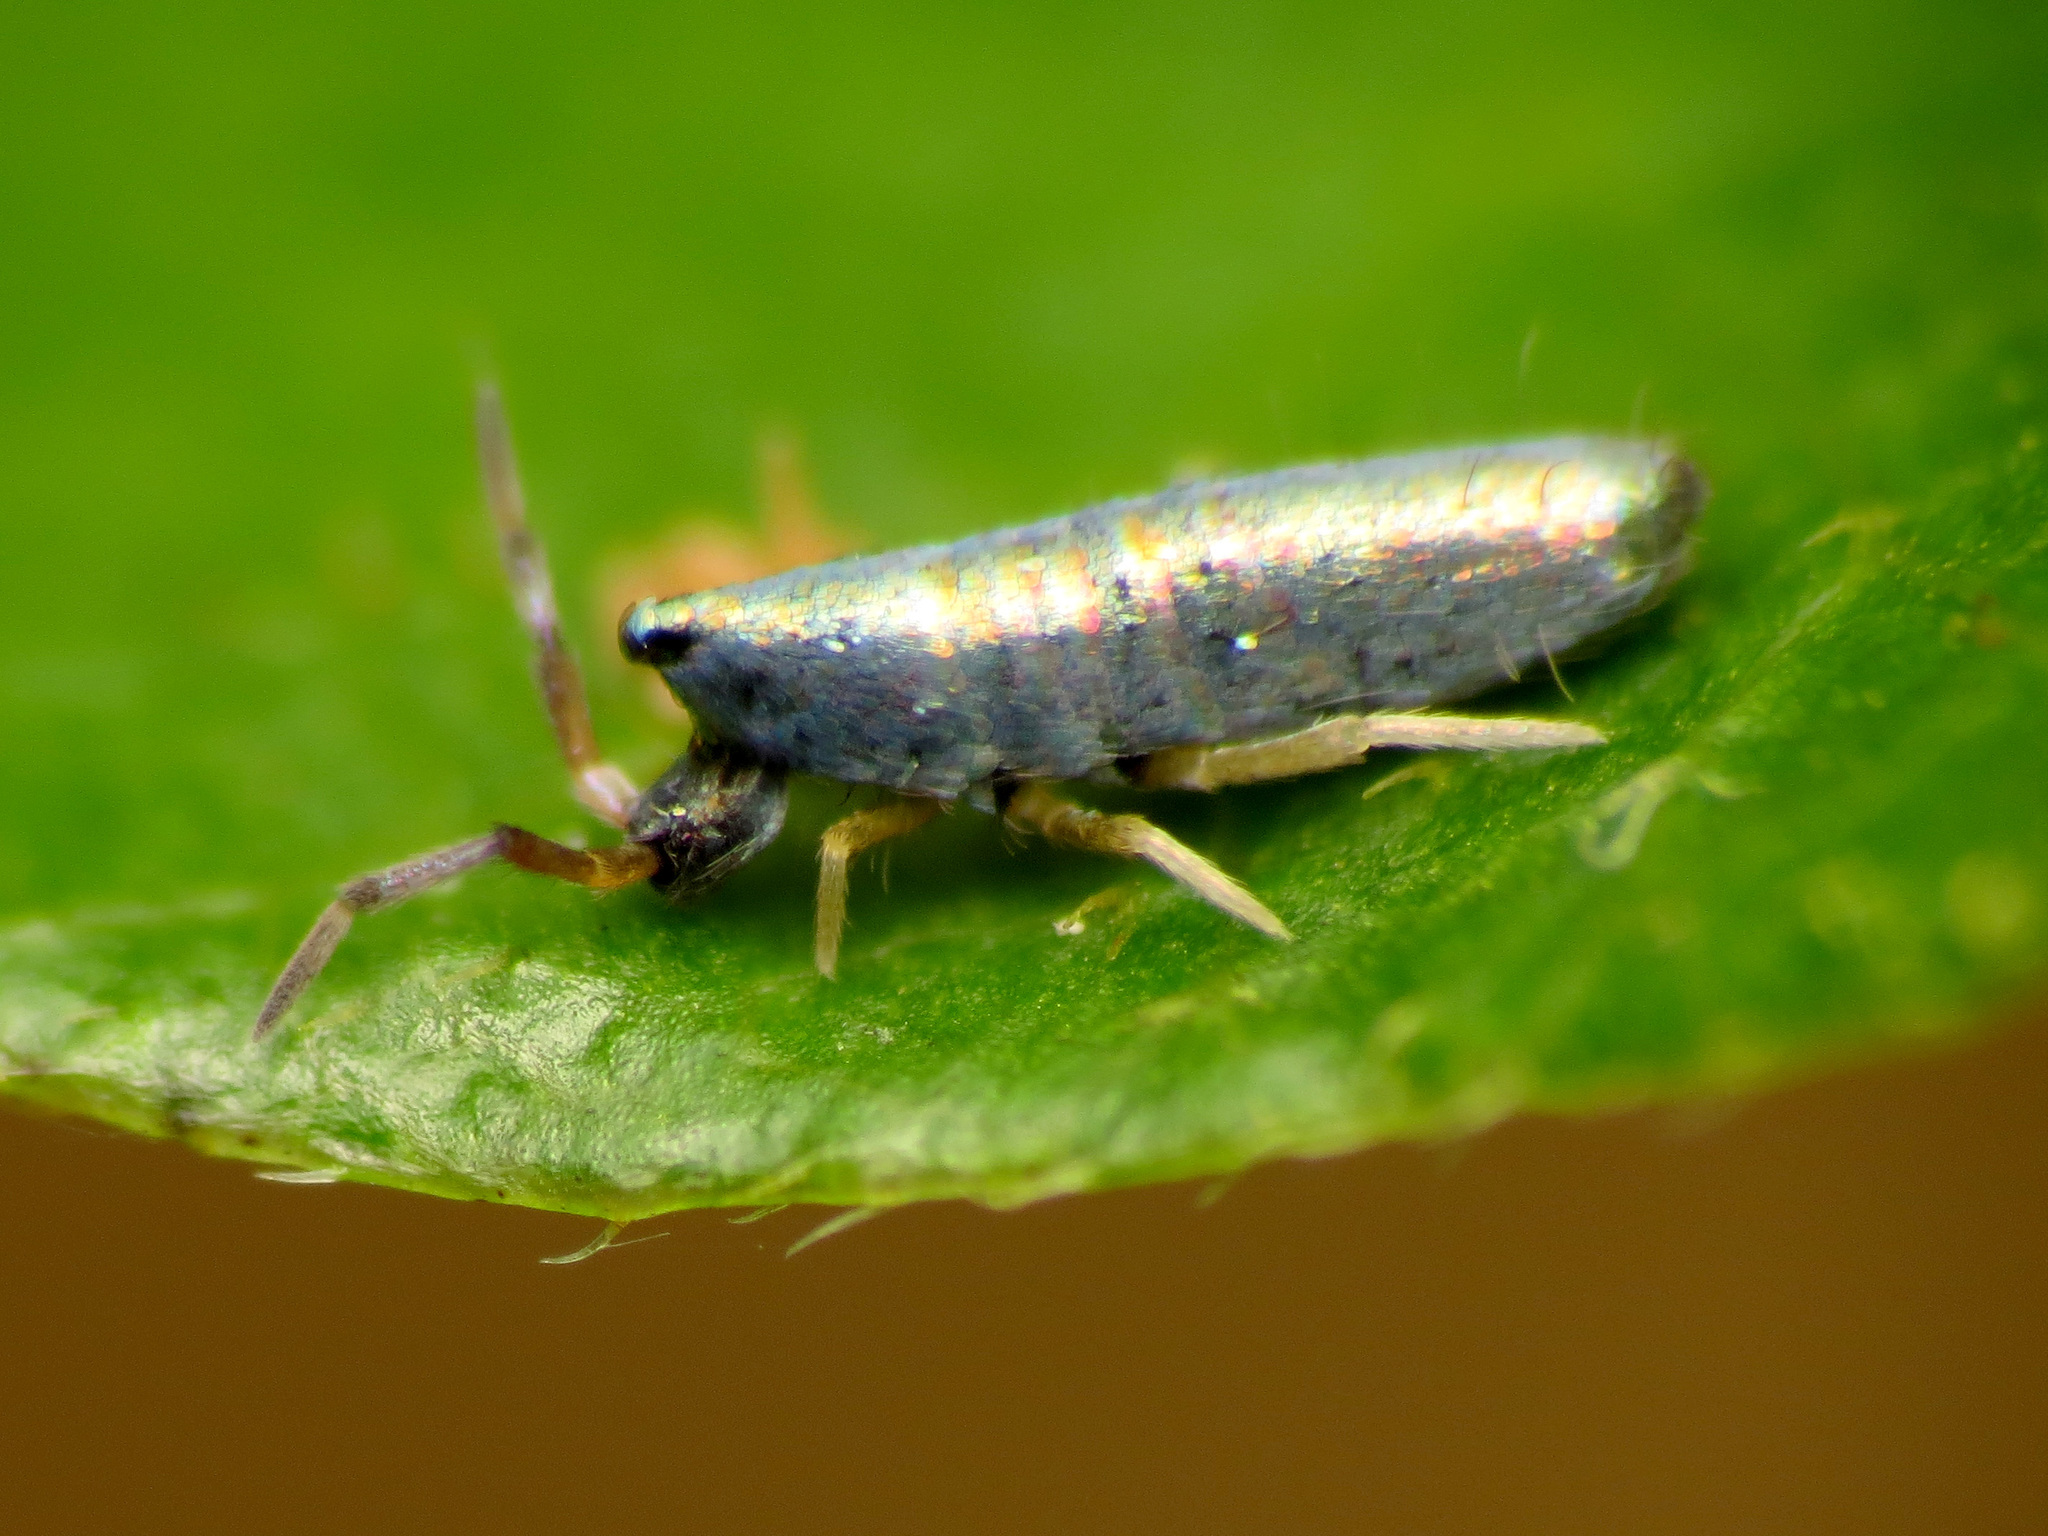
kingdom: Animalia
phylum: Arthropoda
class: Collembola
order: Entomobryomorpha
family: Entomobryidae
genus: Lepidocyrtus
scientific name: Lepidocyrtus paradoxus
